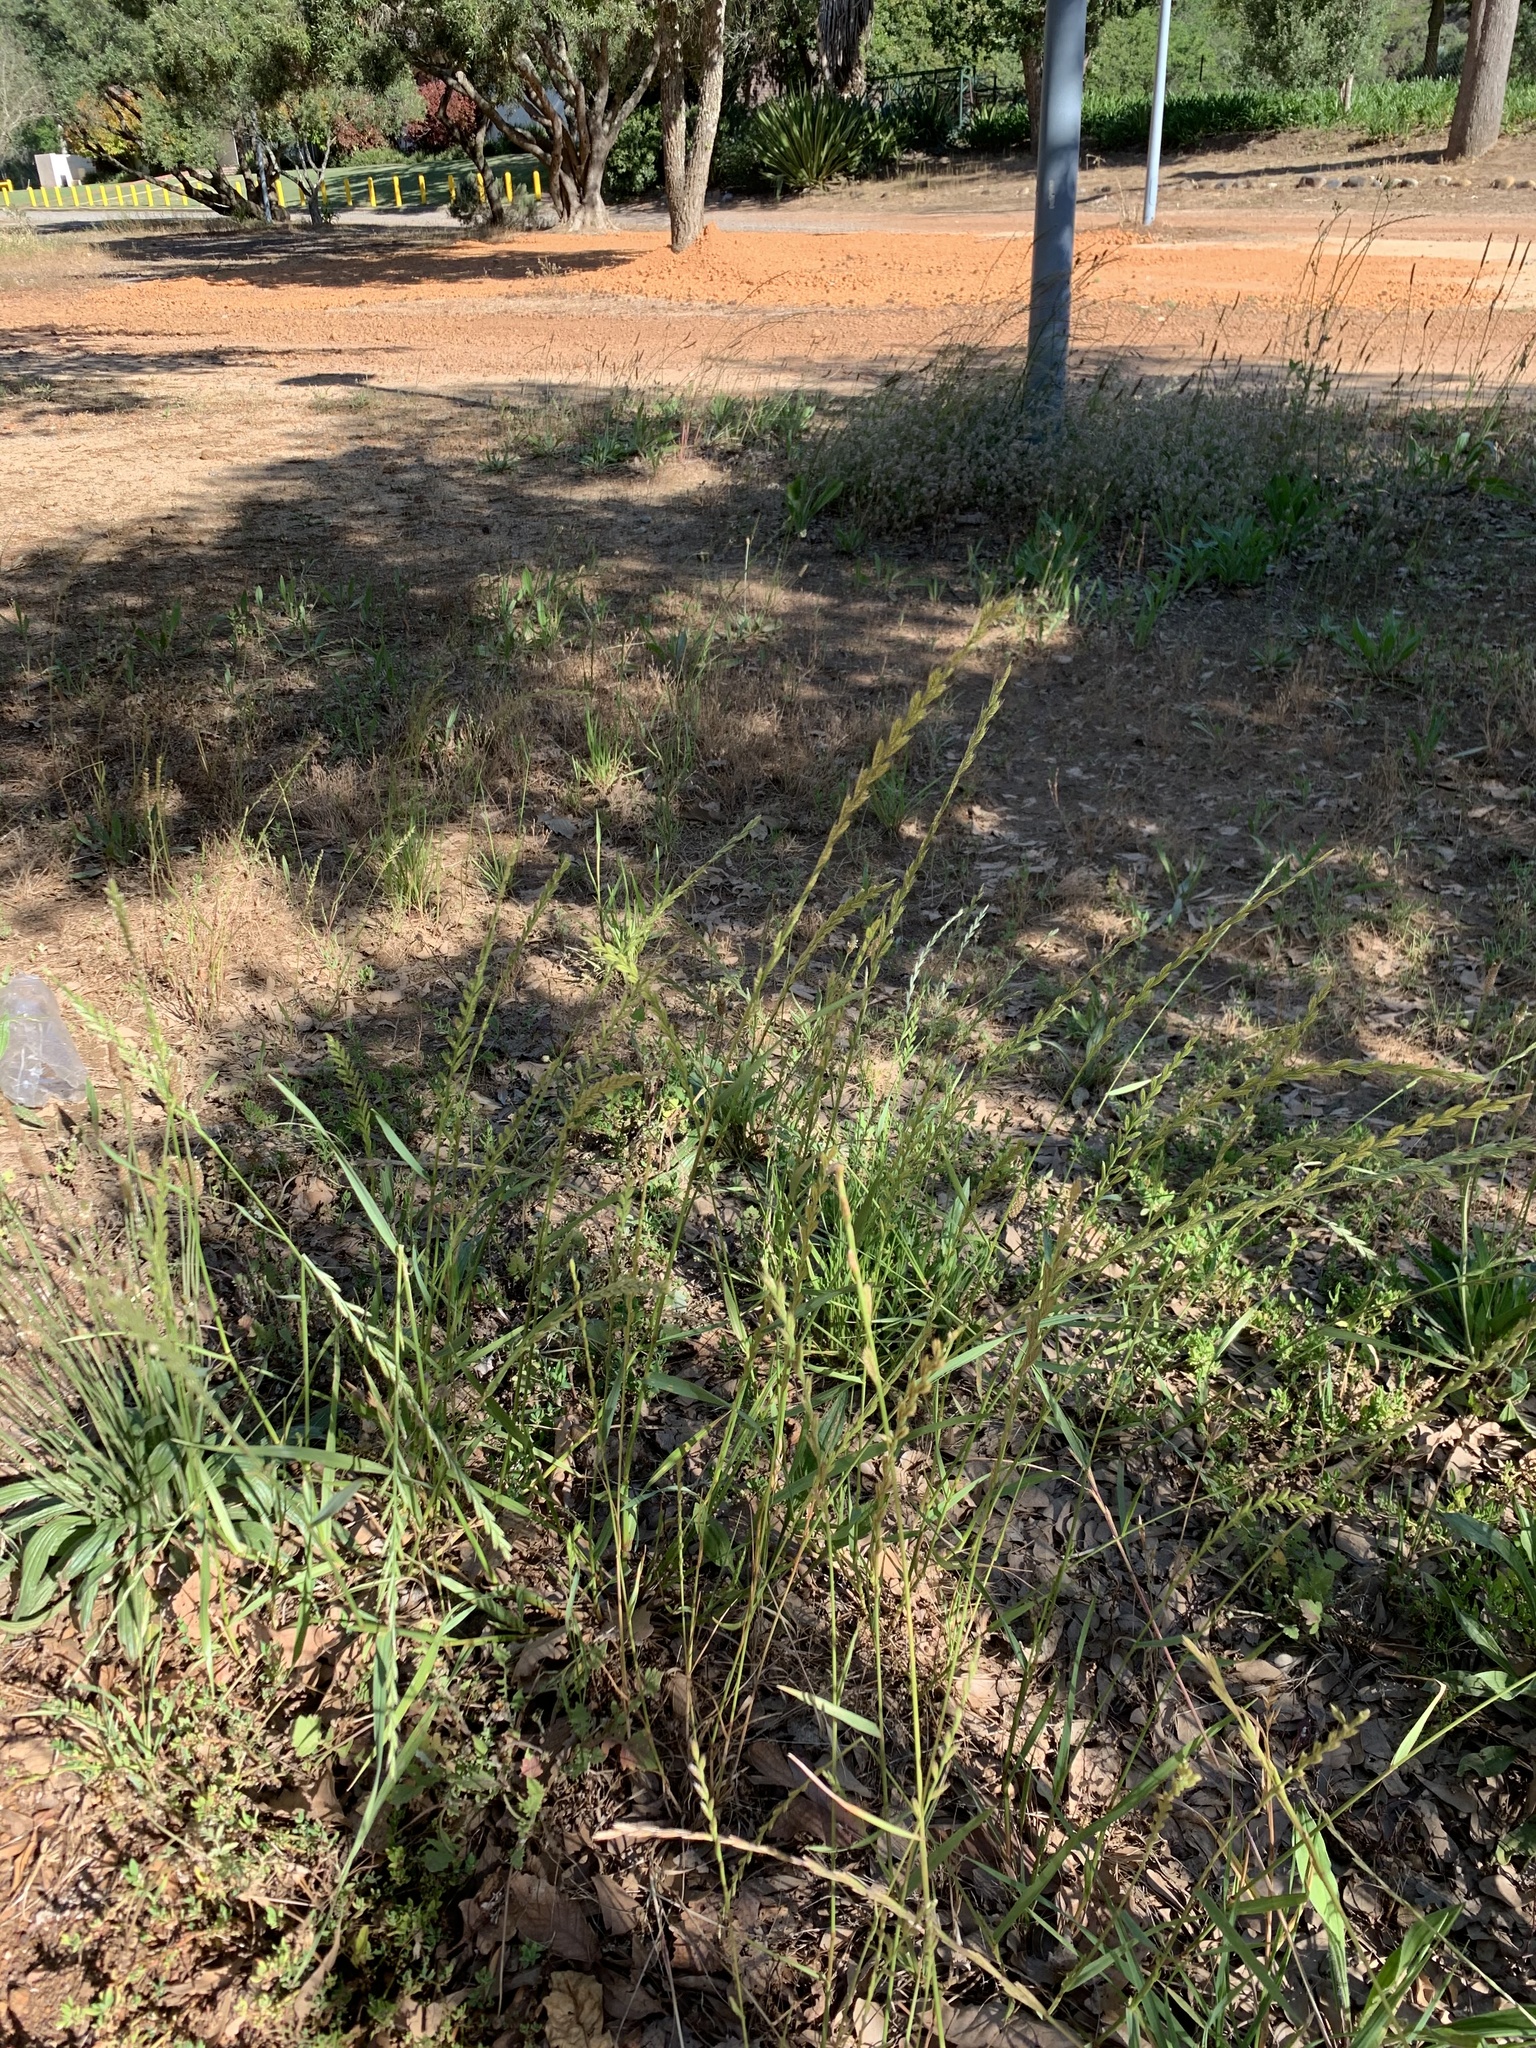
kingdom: Plantae
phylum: Tracheophyta
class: Liliopsida
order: Poales
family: Poaceae
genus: Lolium
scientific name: Lolium multiflorum
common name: Annual ryegrass
